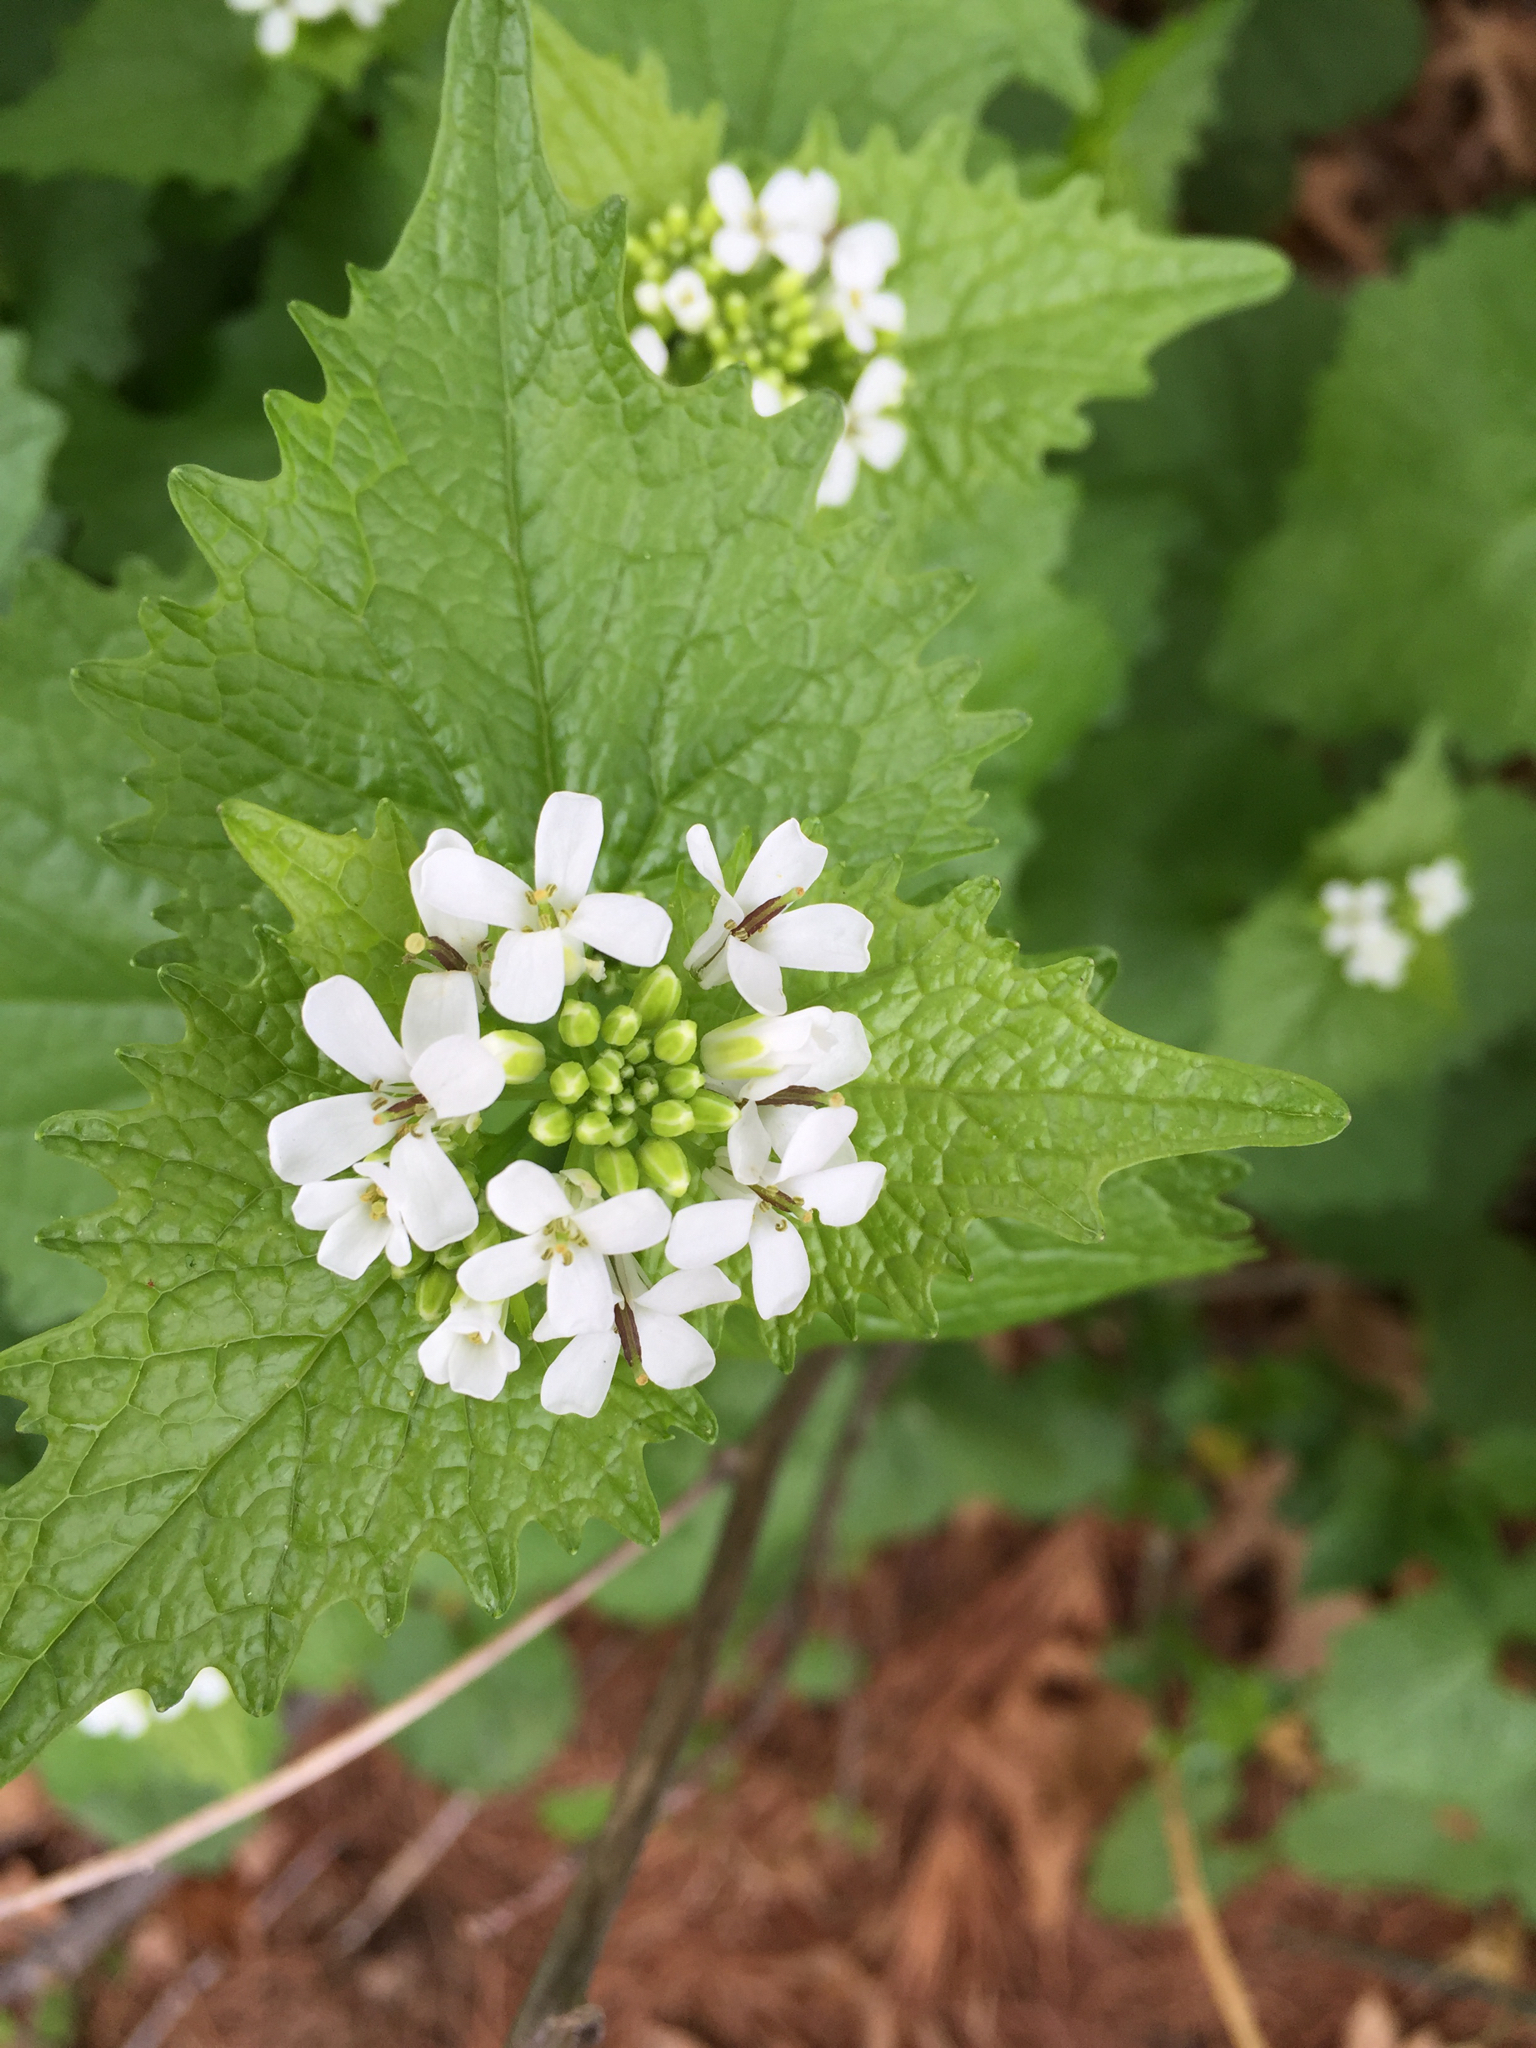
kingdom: Plantae
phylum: Tracheophyta
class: Magnoliopsida
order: Brassicales
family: Brassicaceae
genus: Alliaria
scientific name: Alliaria petiolata
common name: Garlic mustard
